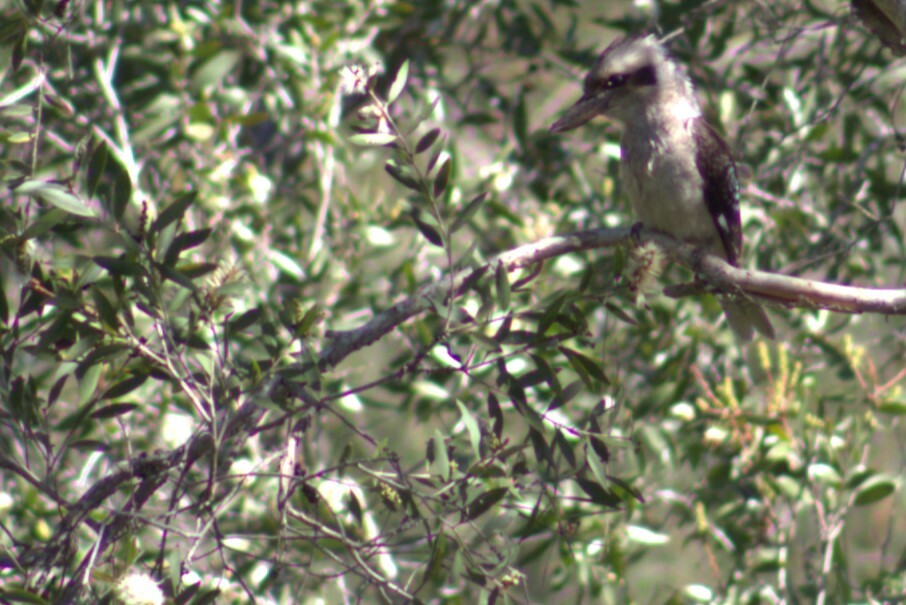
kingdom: Animalia
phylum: Chordata
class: Aves
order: Coraciiformes
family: Alcedinidae
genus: Dacelo
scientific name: Dacelo novaeguineae
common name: Laughing kookaburra
